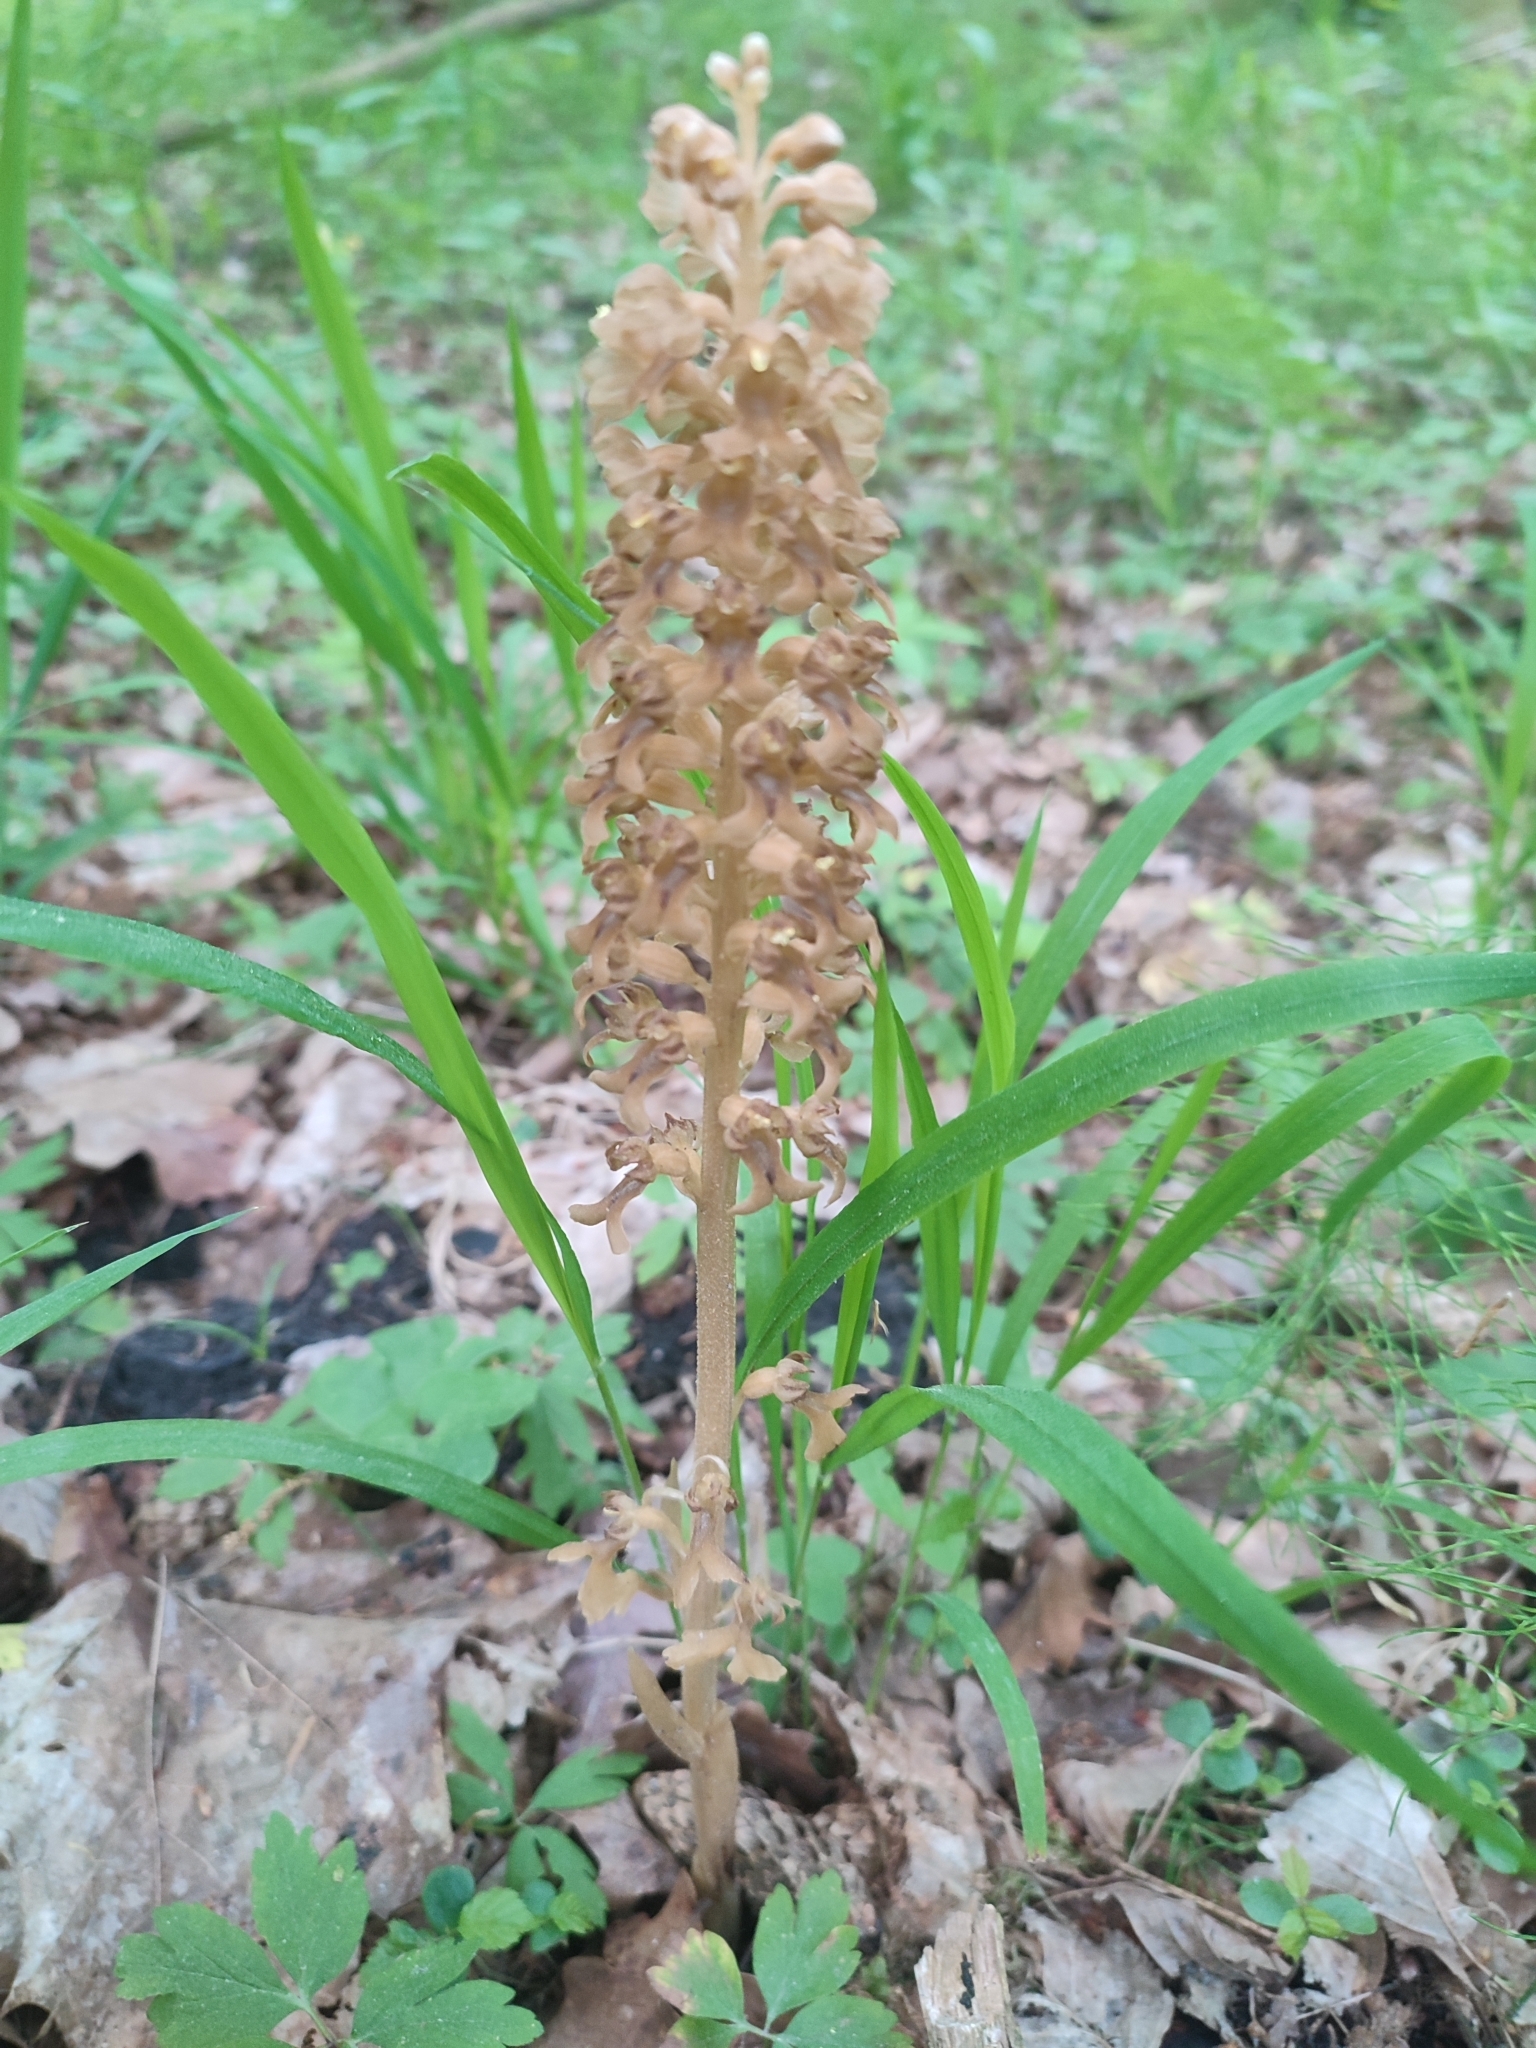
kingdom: Plantae
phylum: Tracheophyta
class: Liliopsida
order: Asparagales
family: Orchidaceae
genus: Neottia
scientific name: Neottia nidus-avis
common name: Bird's-nest orchid
